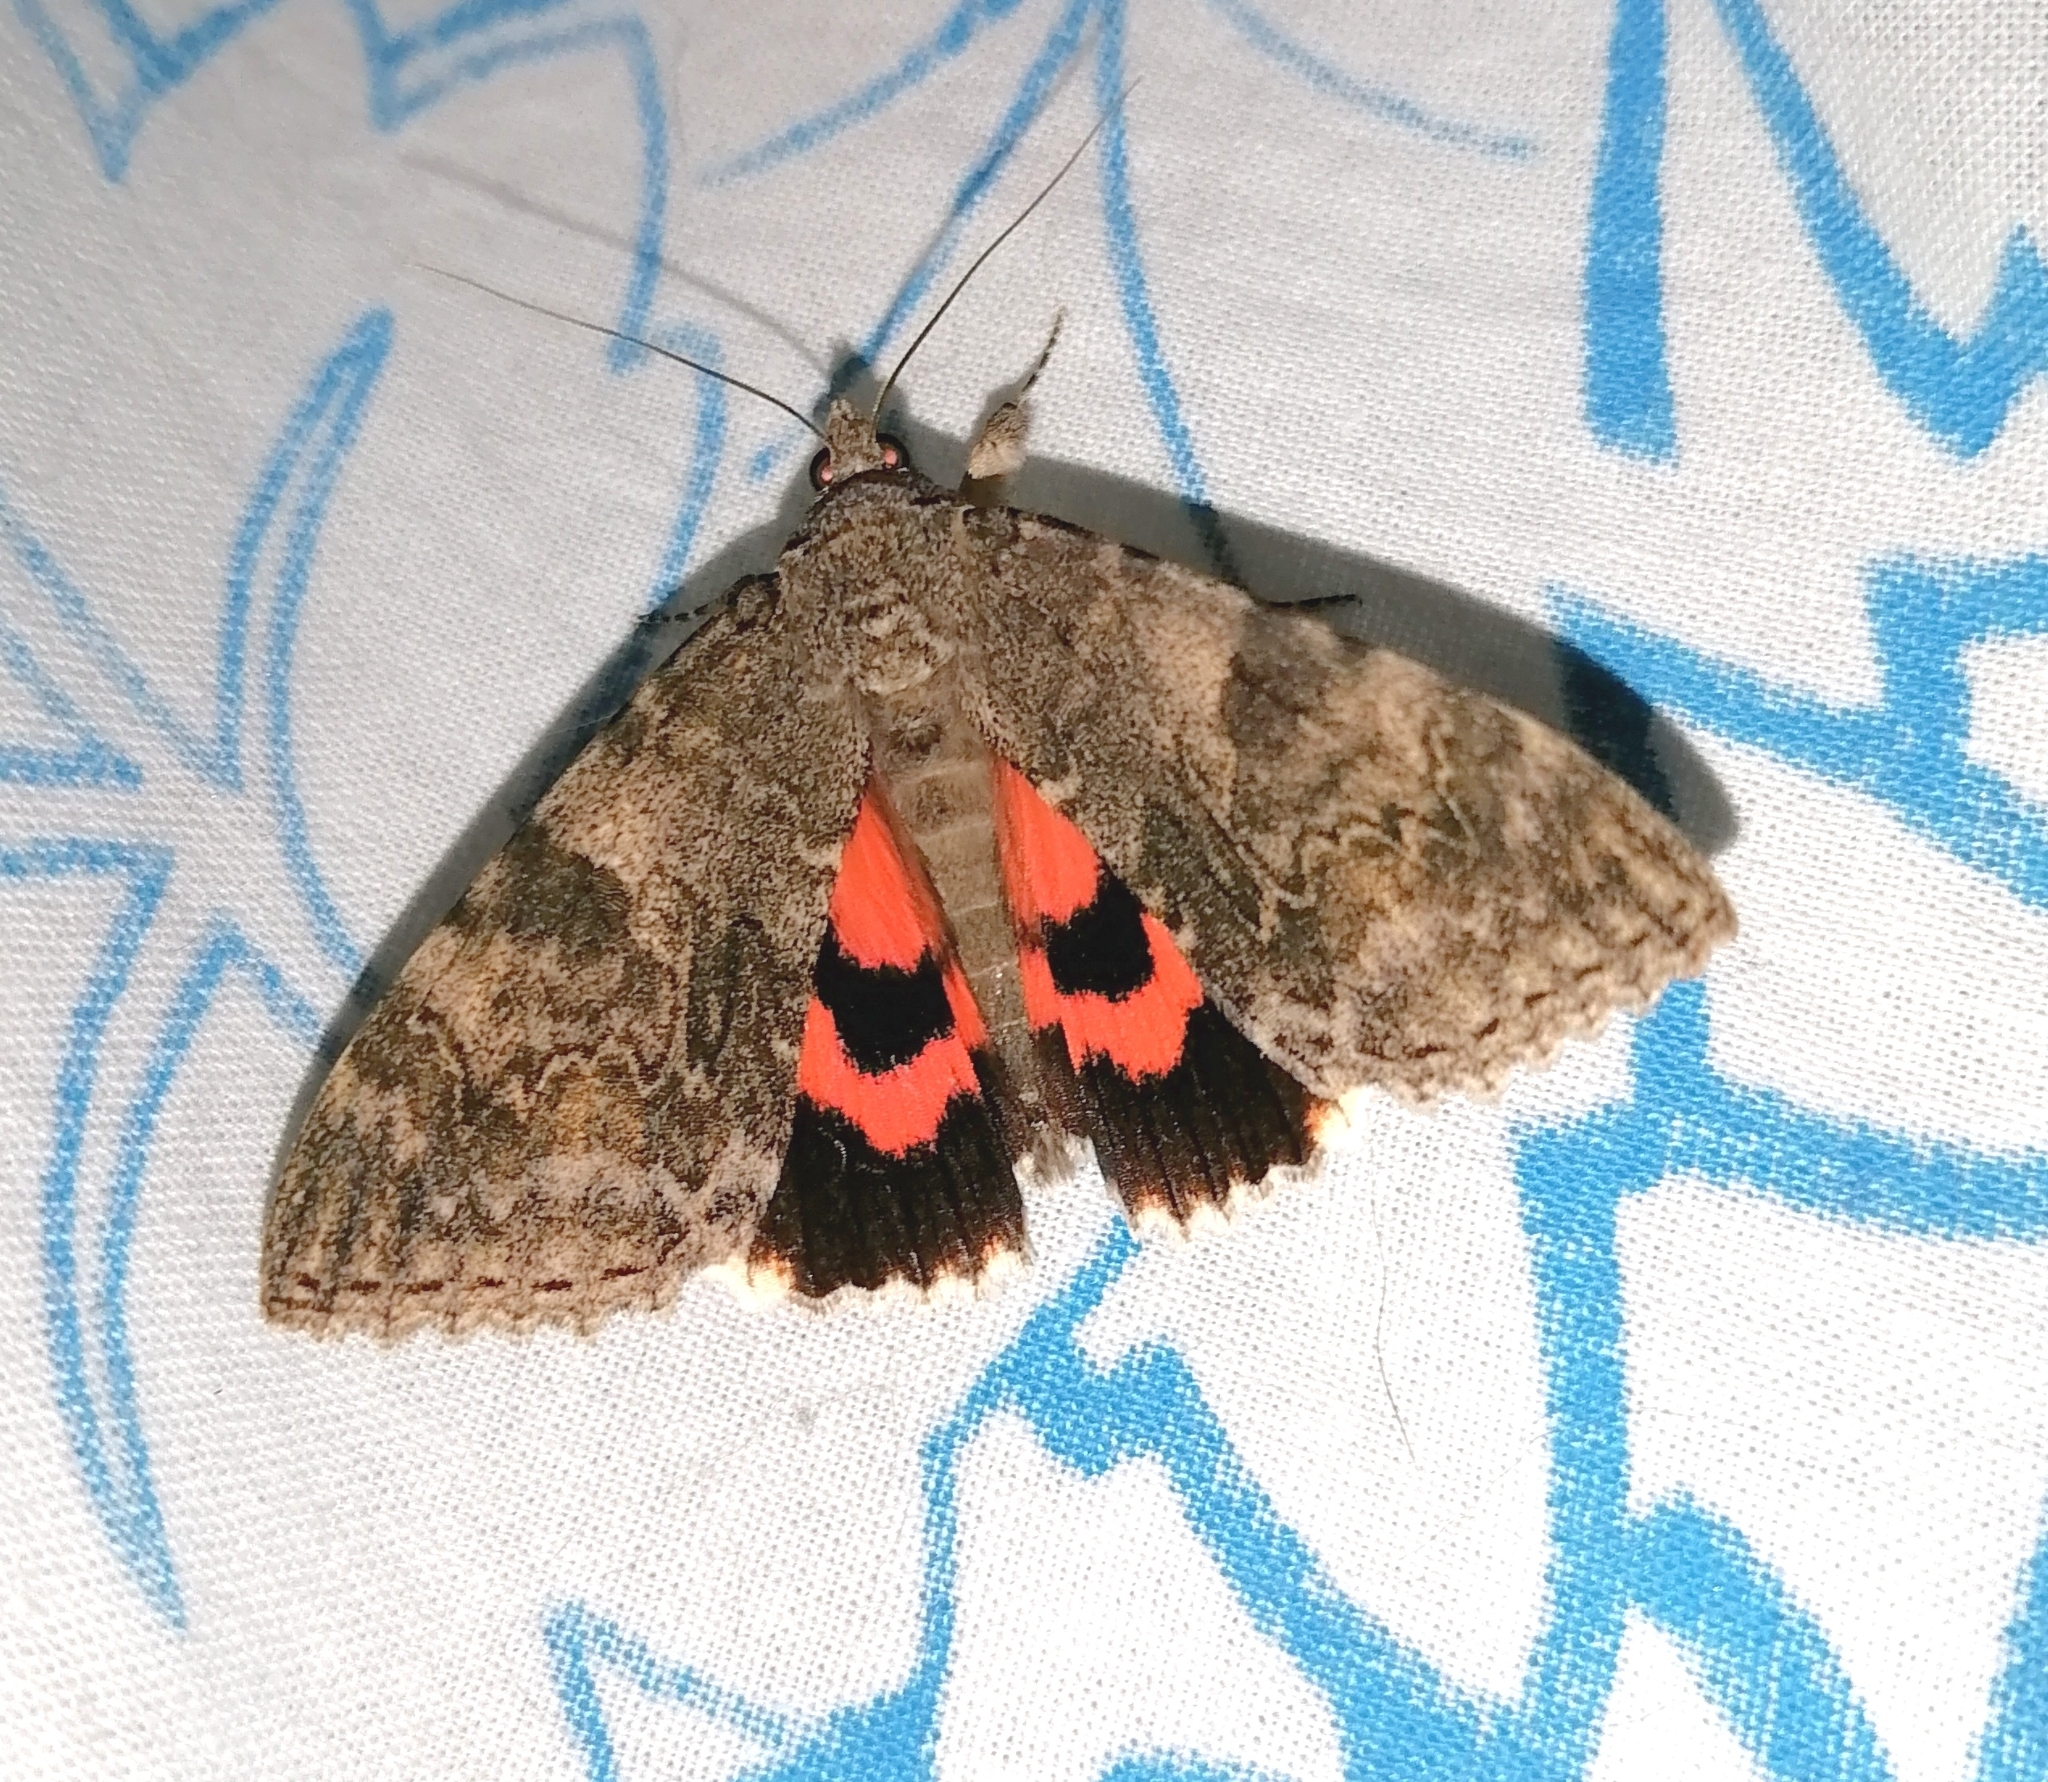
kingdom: Animalia
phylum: Arthropoda
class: Insecta
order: Lepidoptera
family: Erebidae
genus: Catocala
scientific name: Catocala nupta
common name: Red underwing
